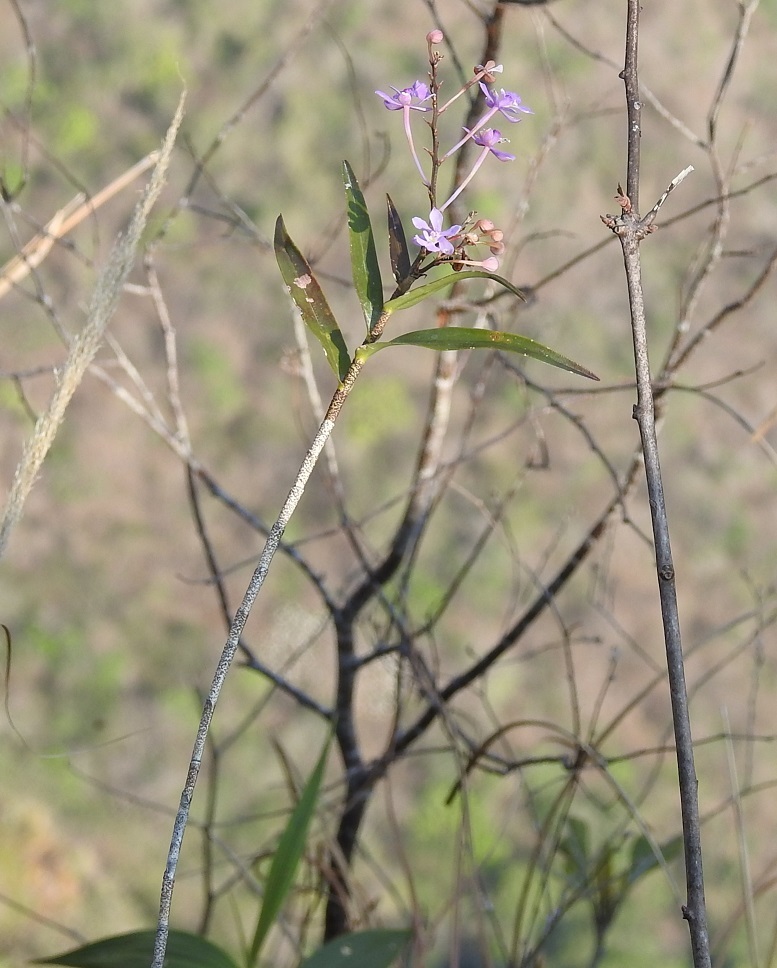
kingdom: Plantae
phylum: Tracheophyta
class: Liliopsida
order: Asparagales
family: Orchidaceae
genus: Epidendrum
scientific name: Epidendrum myrianthum
